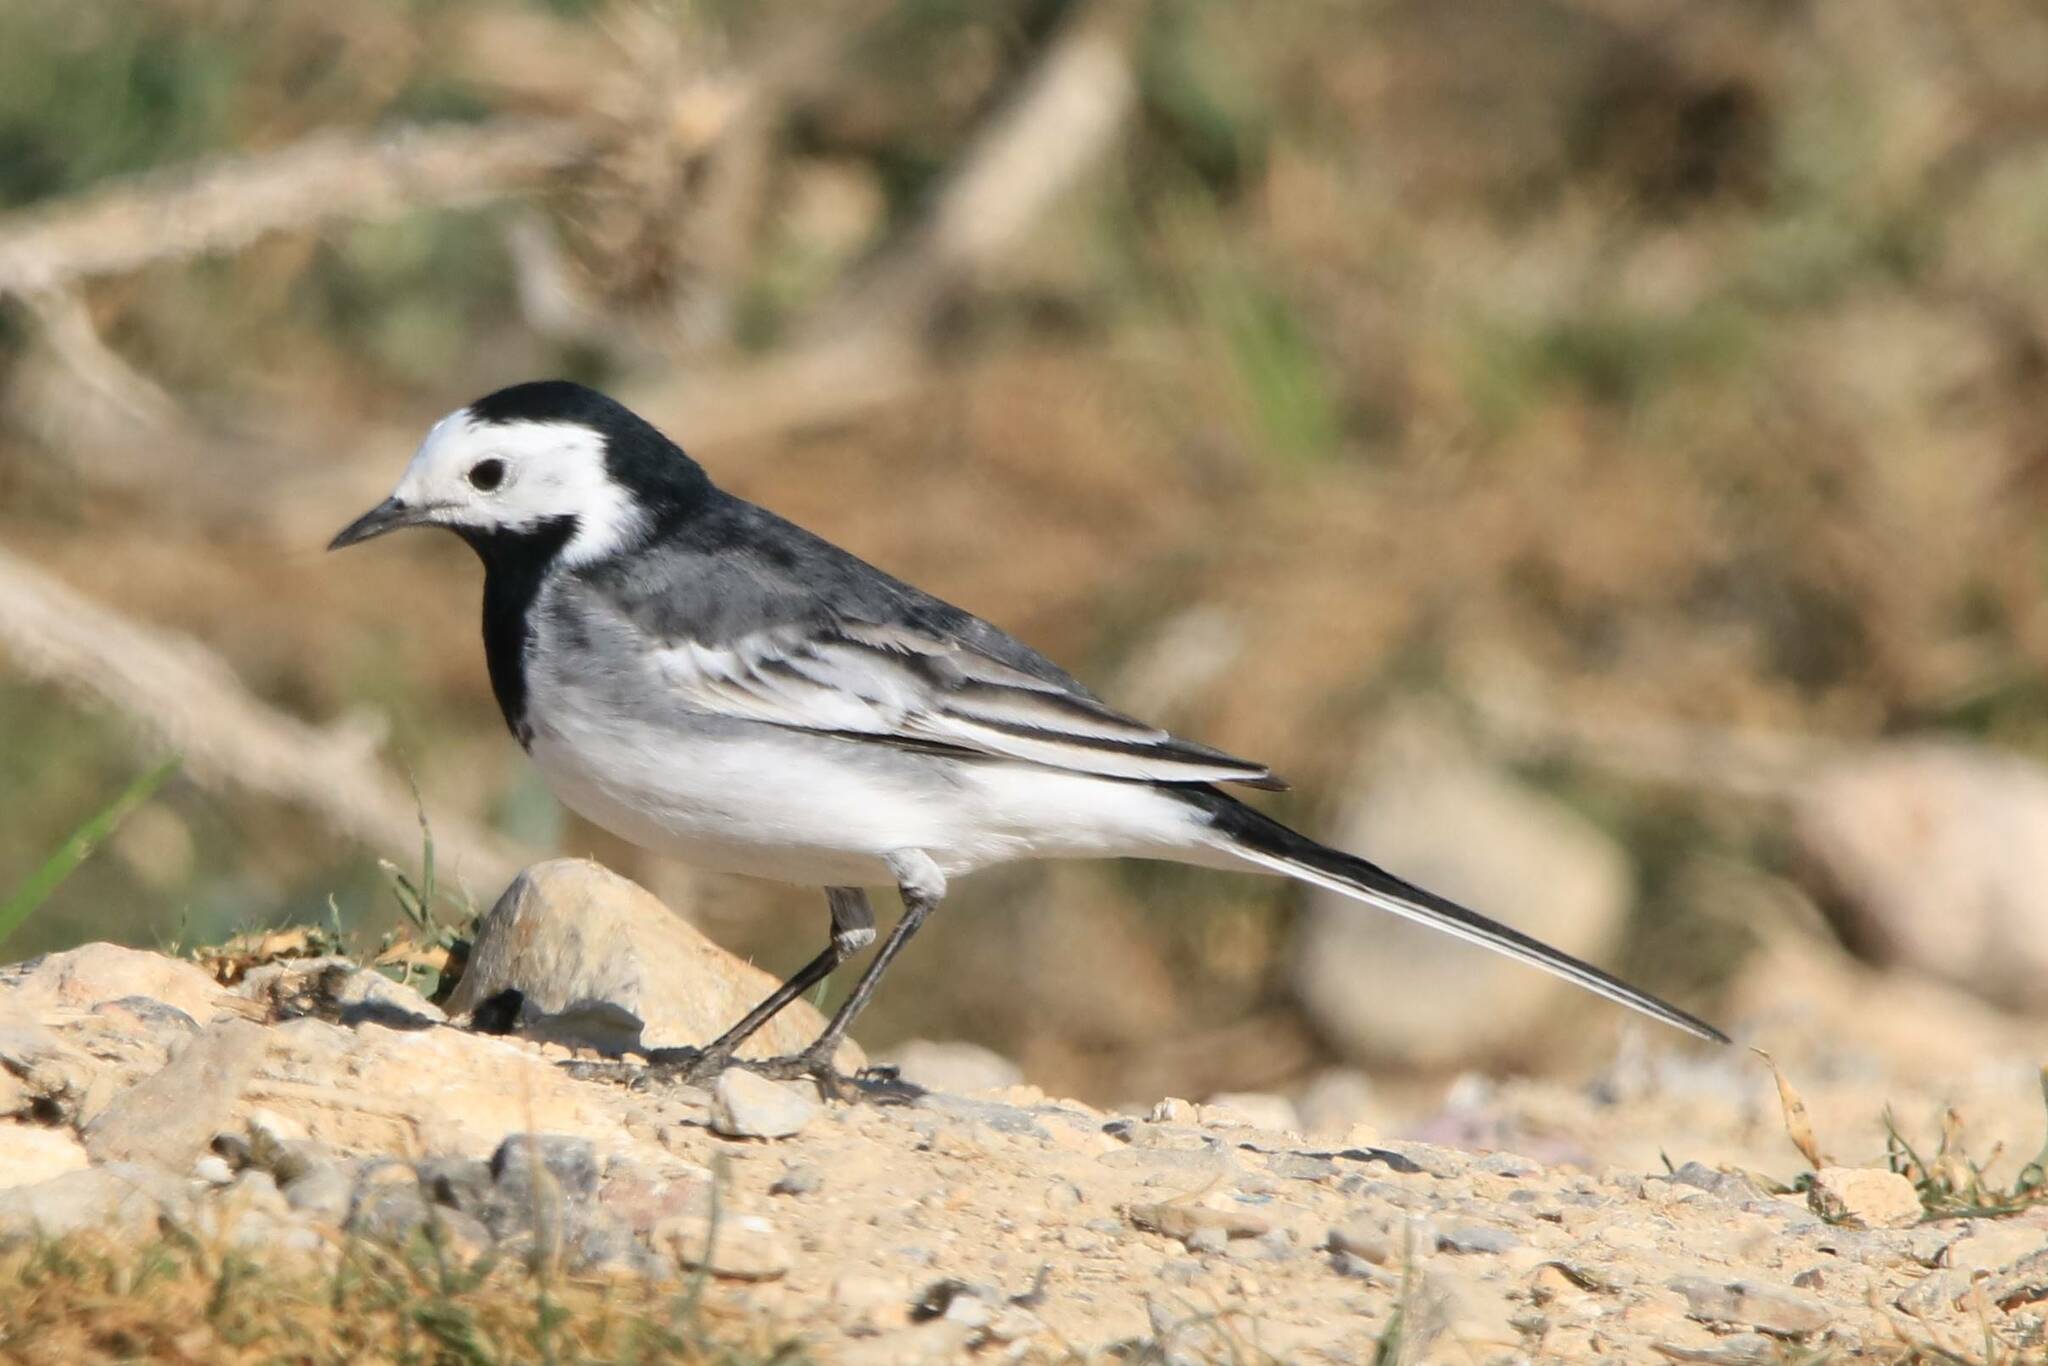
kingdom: Animalia
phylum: Chordata
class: Aves
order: Passeriformes
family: Motacillidae
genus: Motacilla
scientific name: Motacilla alba
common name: White wagtail
